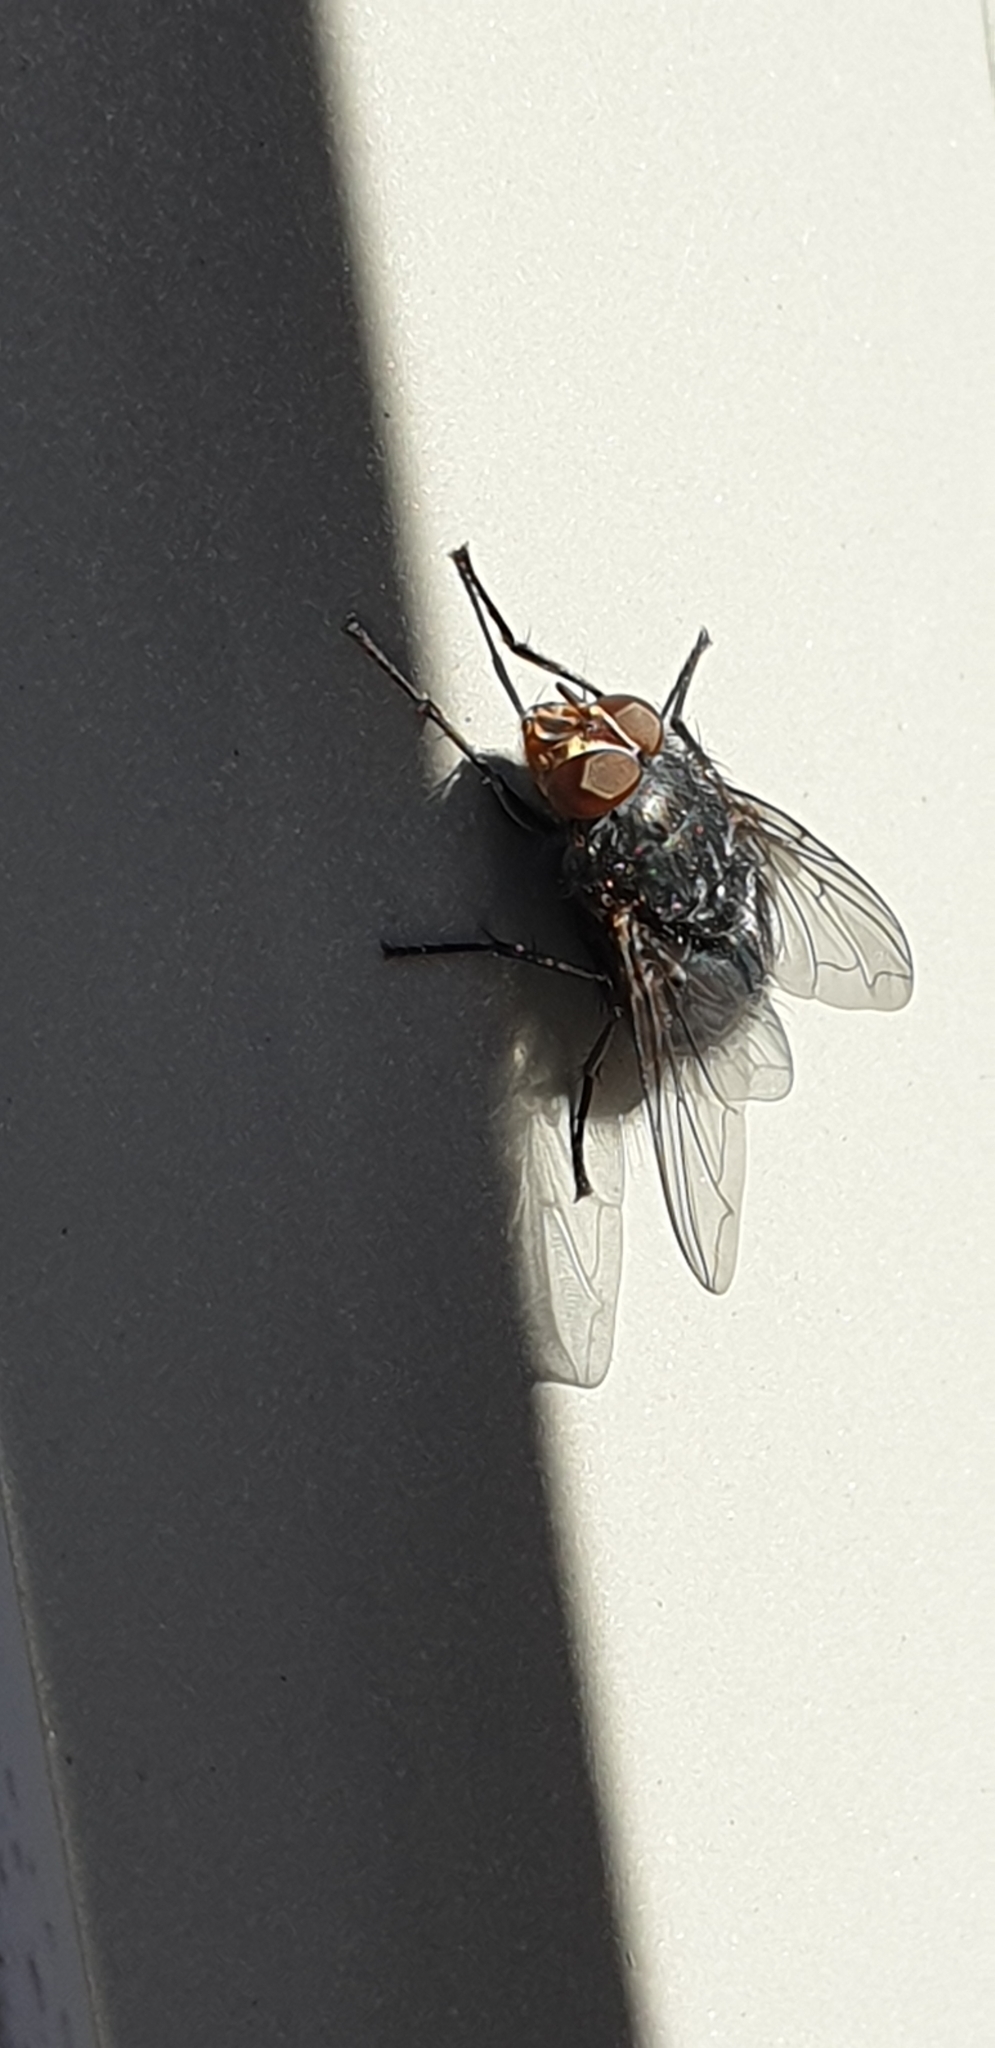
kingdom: Animalia
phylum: Arthropoda
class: Insecta
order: Diptera
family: Calliphoridae
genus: Calliphora
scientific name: Calliphora vicina
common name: Common blow flie
